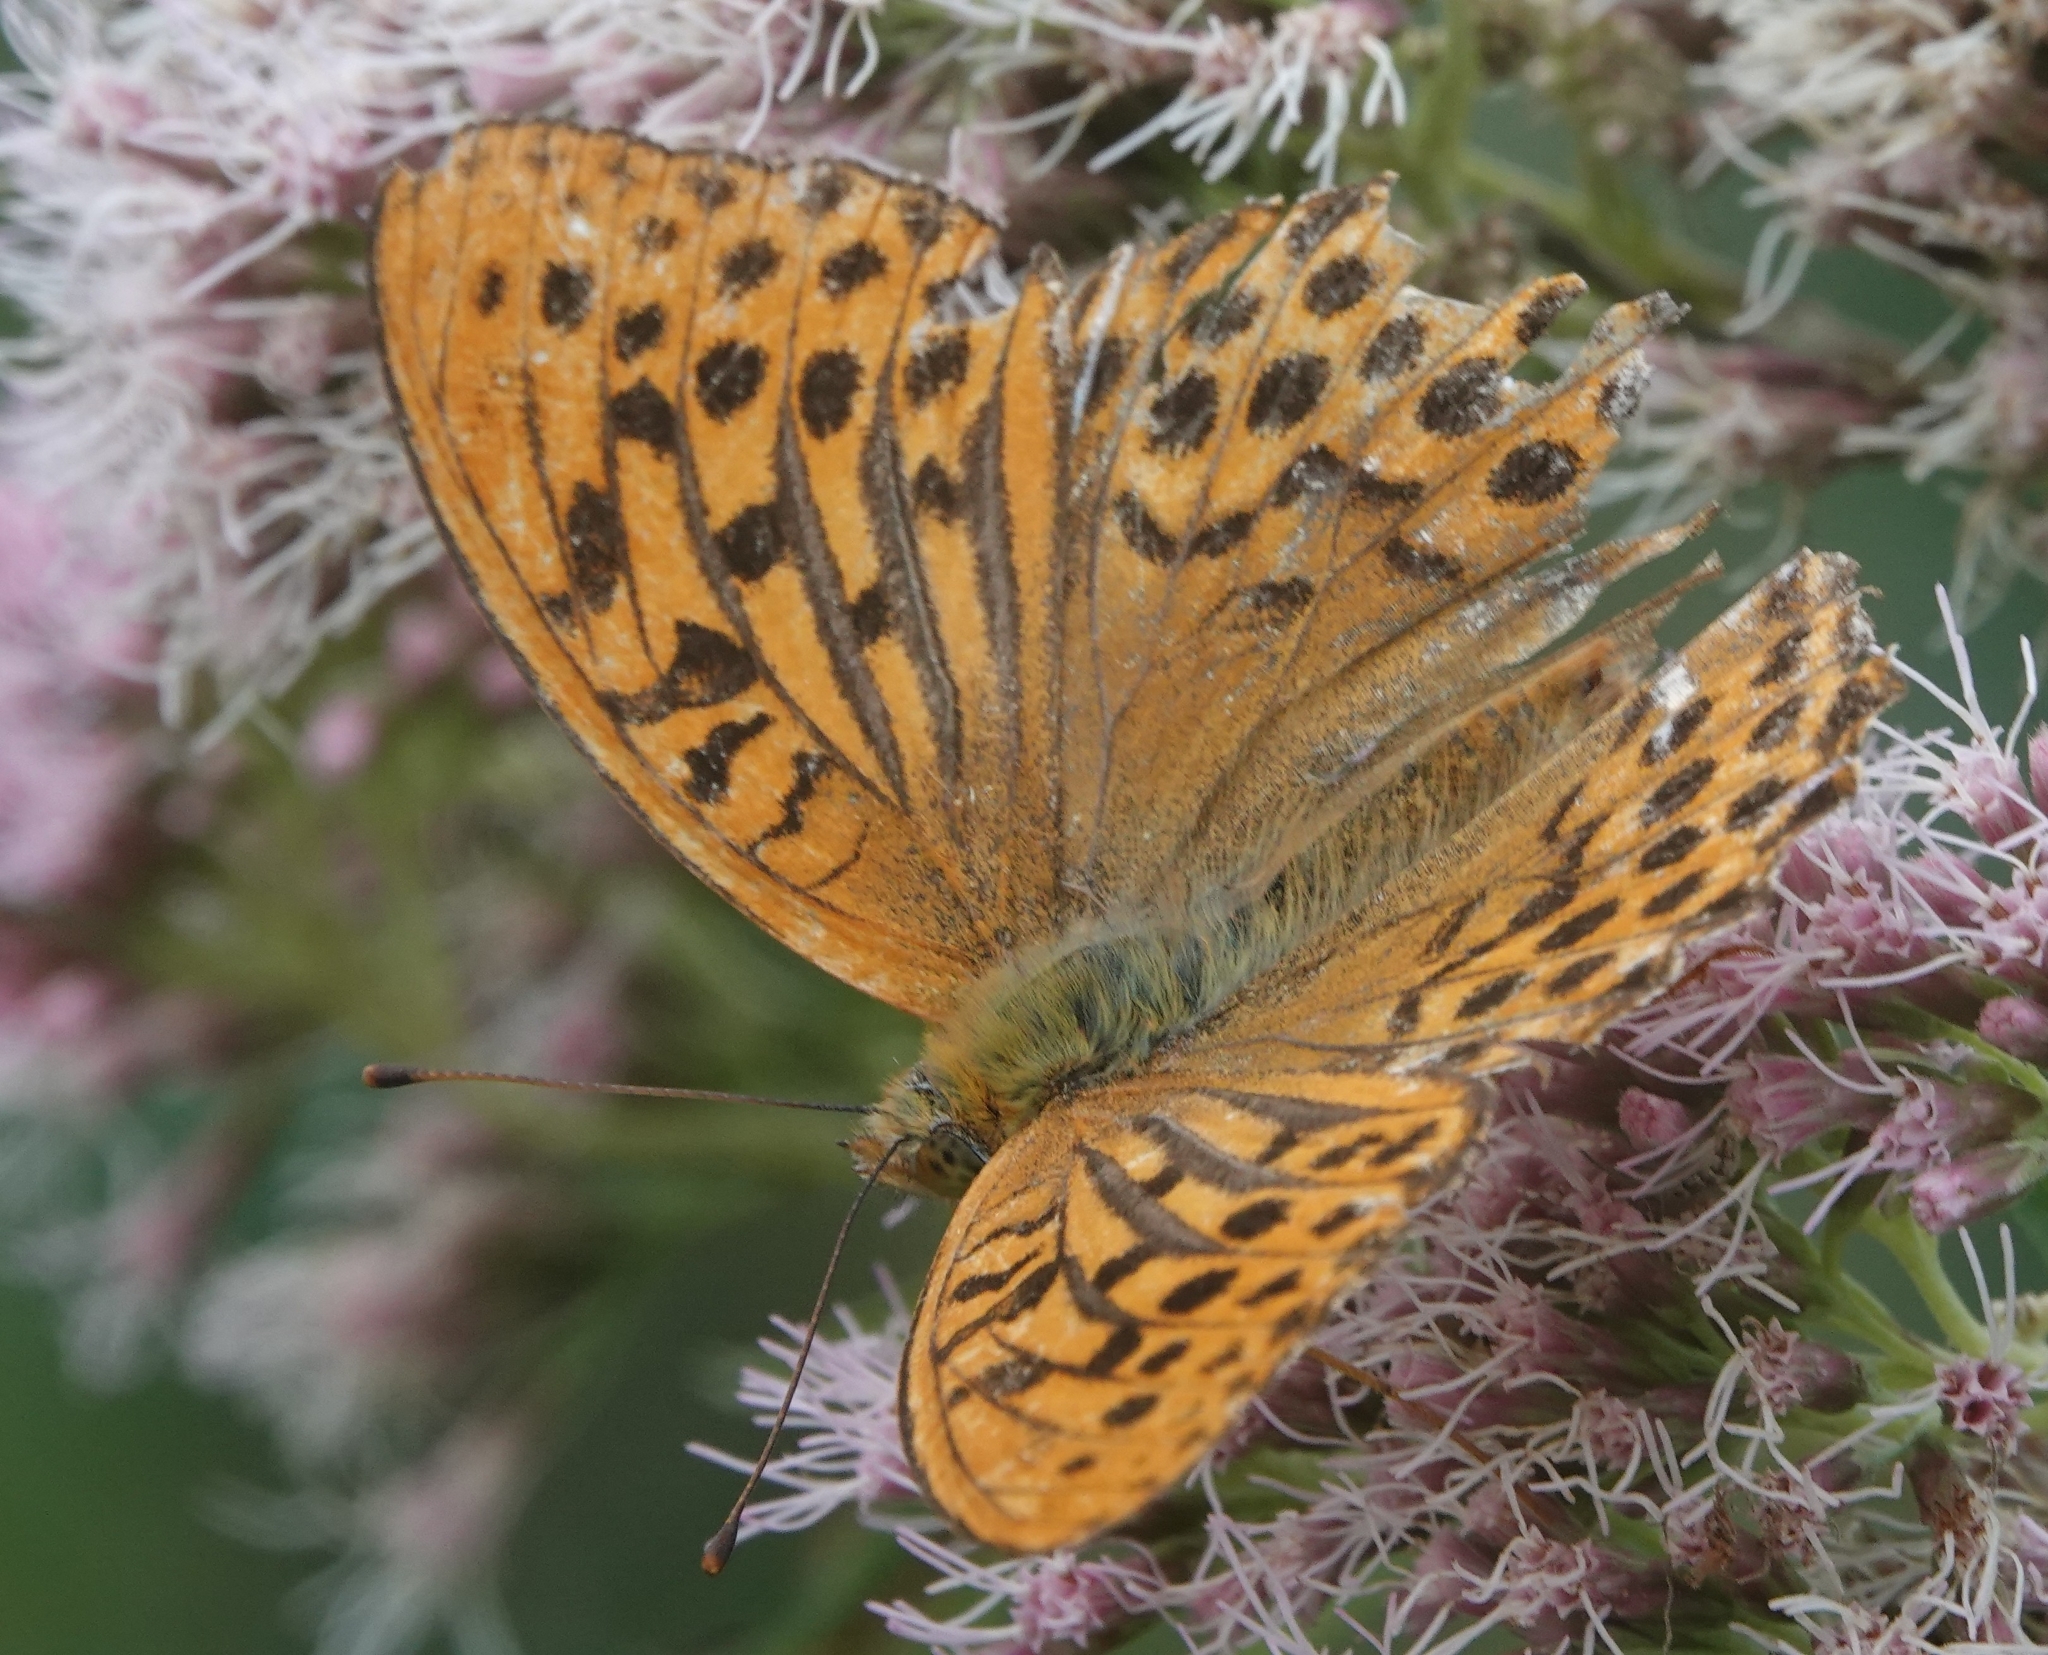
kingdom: Animalia
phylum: Arthropoda
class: Insecta
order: Lepidoptera
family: Nymphalidae
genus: Argynnis
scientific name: Argynnis paphia
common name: Silver-washed fritillary
